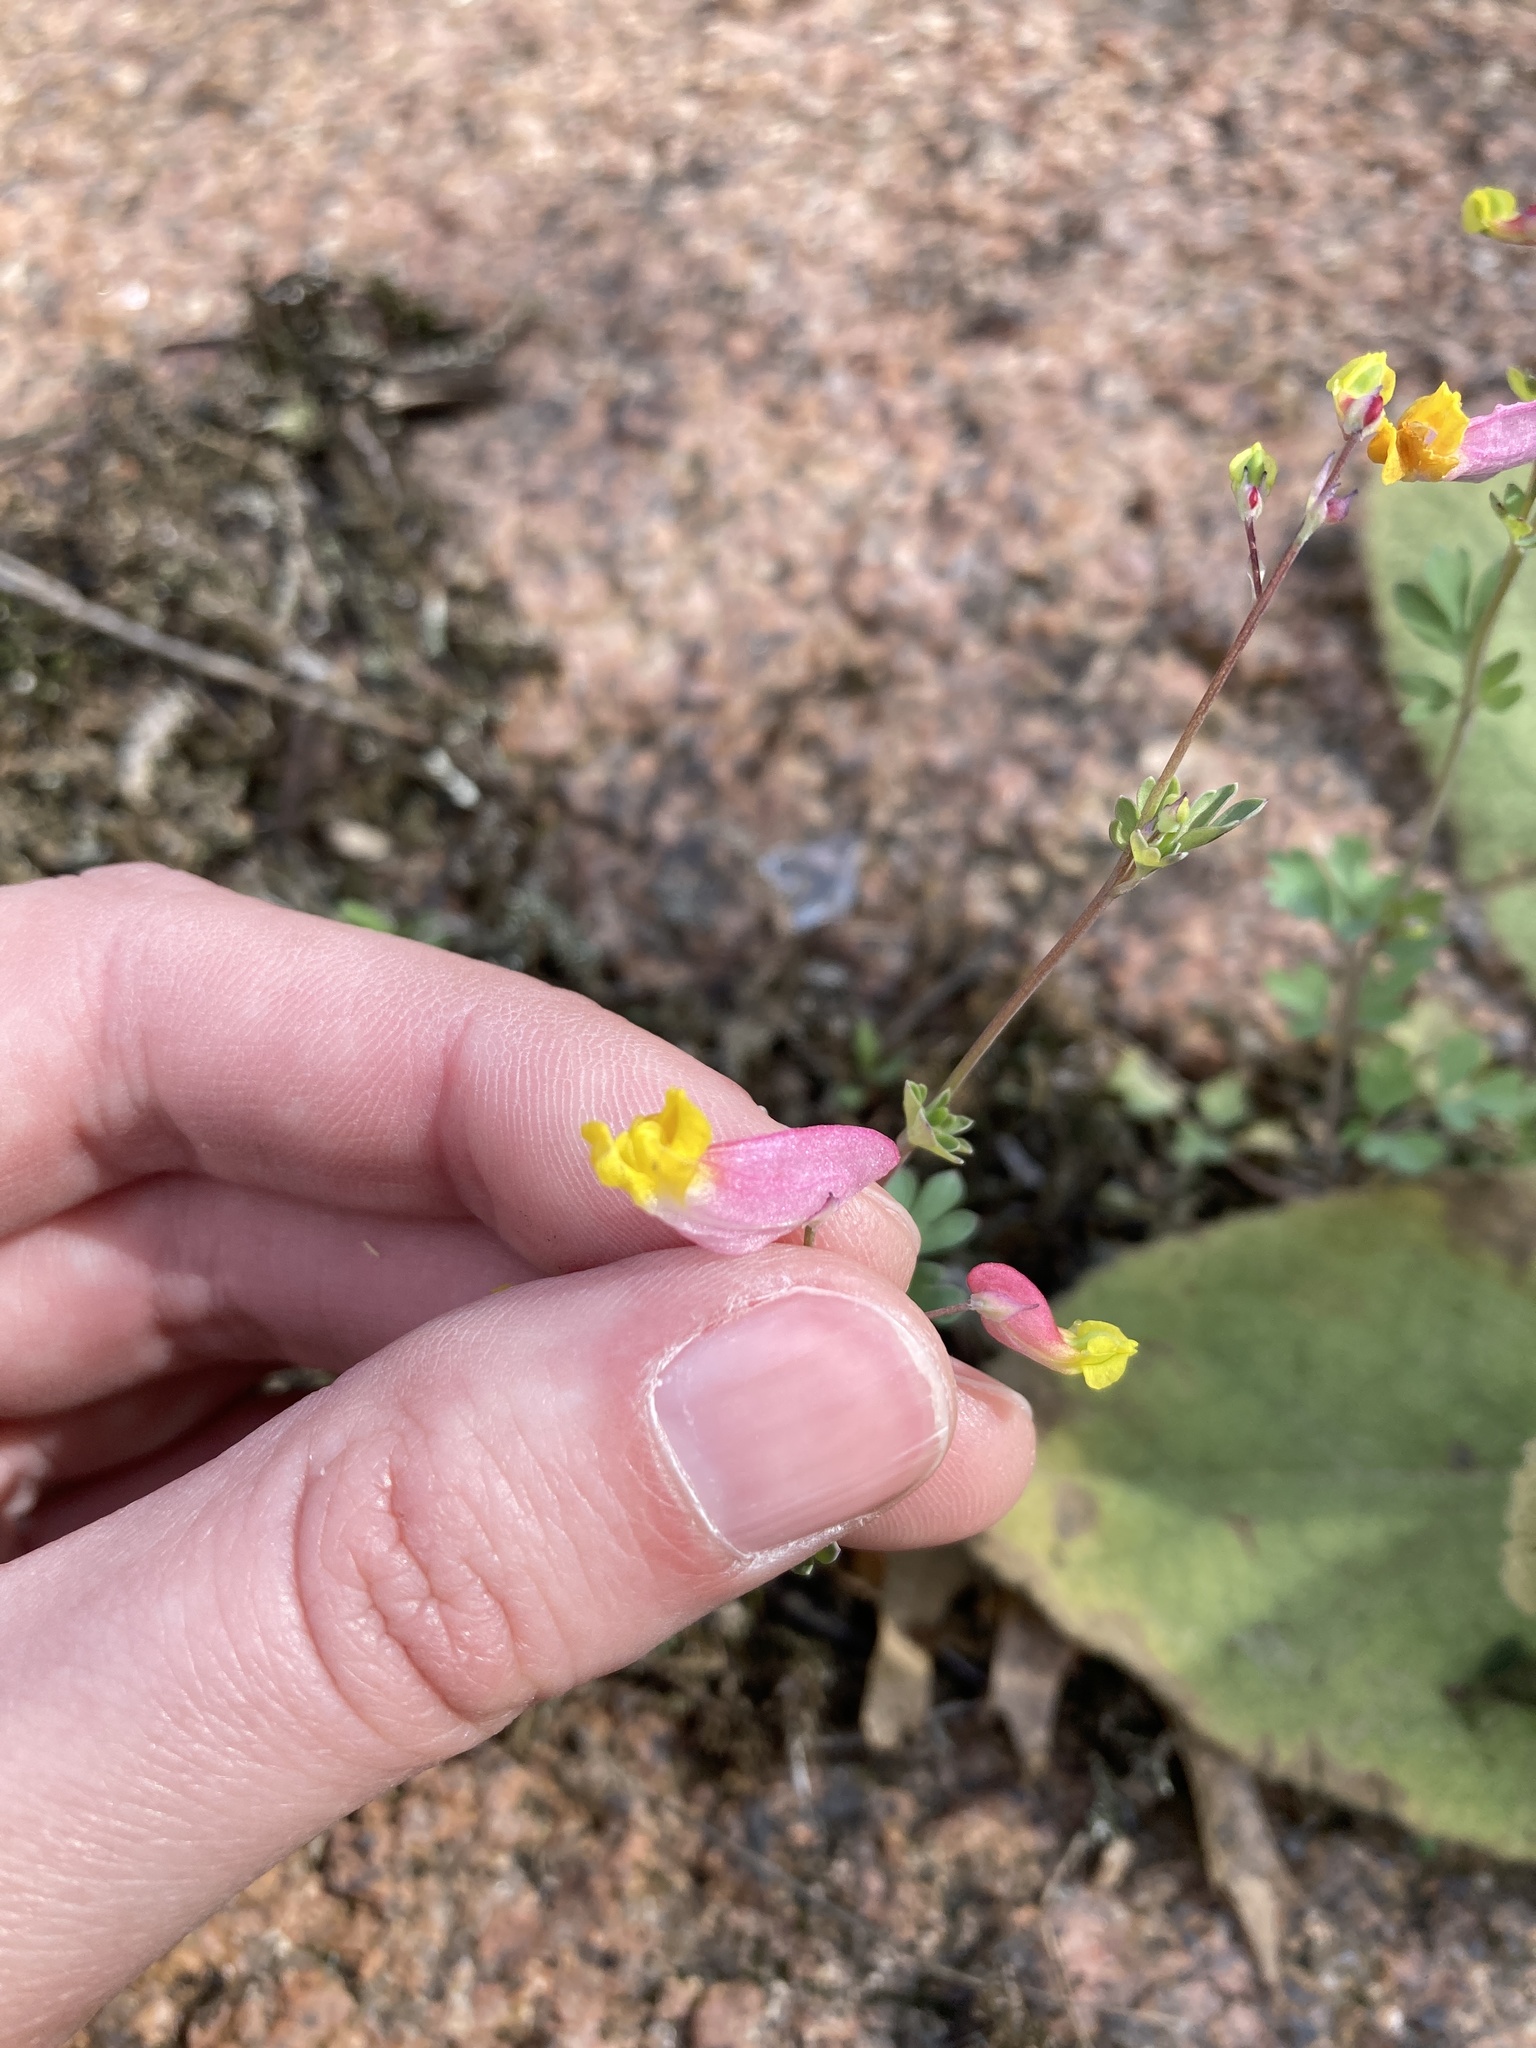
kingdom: Plantae
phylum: Tracheophyta
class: Magnoliopsida
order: Ranunculales
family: Papaveraceae
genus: Capnoides
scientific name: Capnoides sempervirens
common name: Rock harlequin
